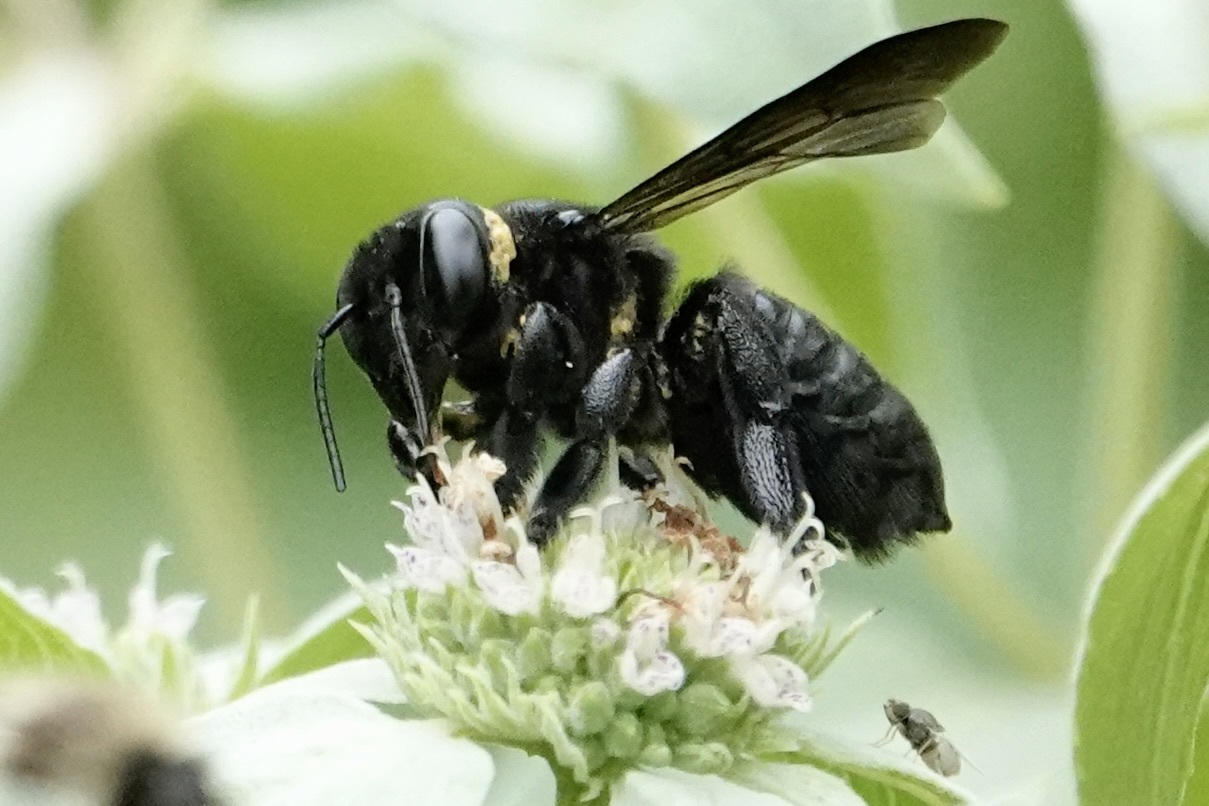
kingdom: Animalia
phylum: Arthropoda
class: Insecta
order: Hymenoptera
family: Megachilidae
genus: Megachile
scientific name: Megachile xylocopoides
